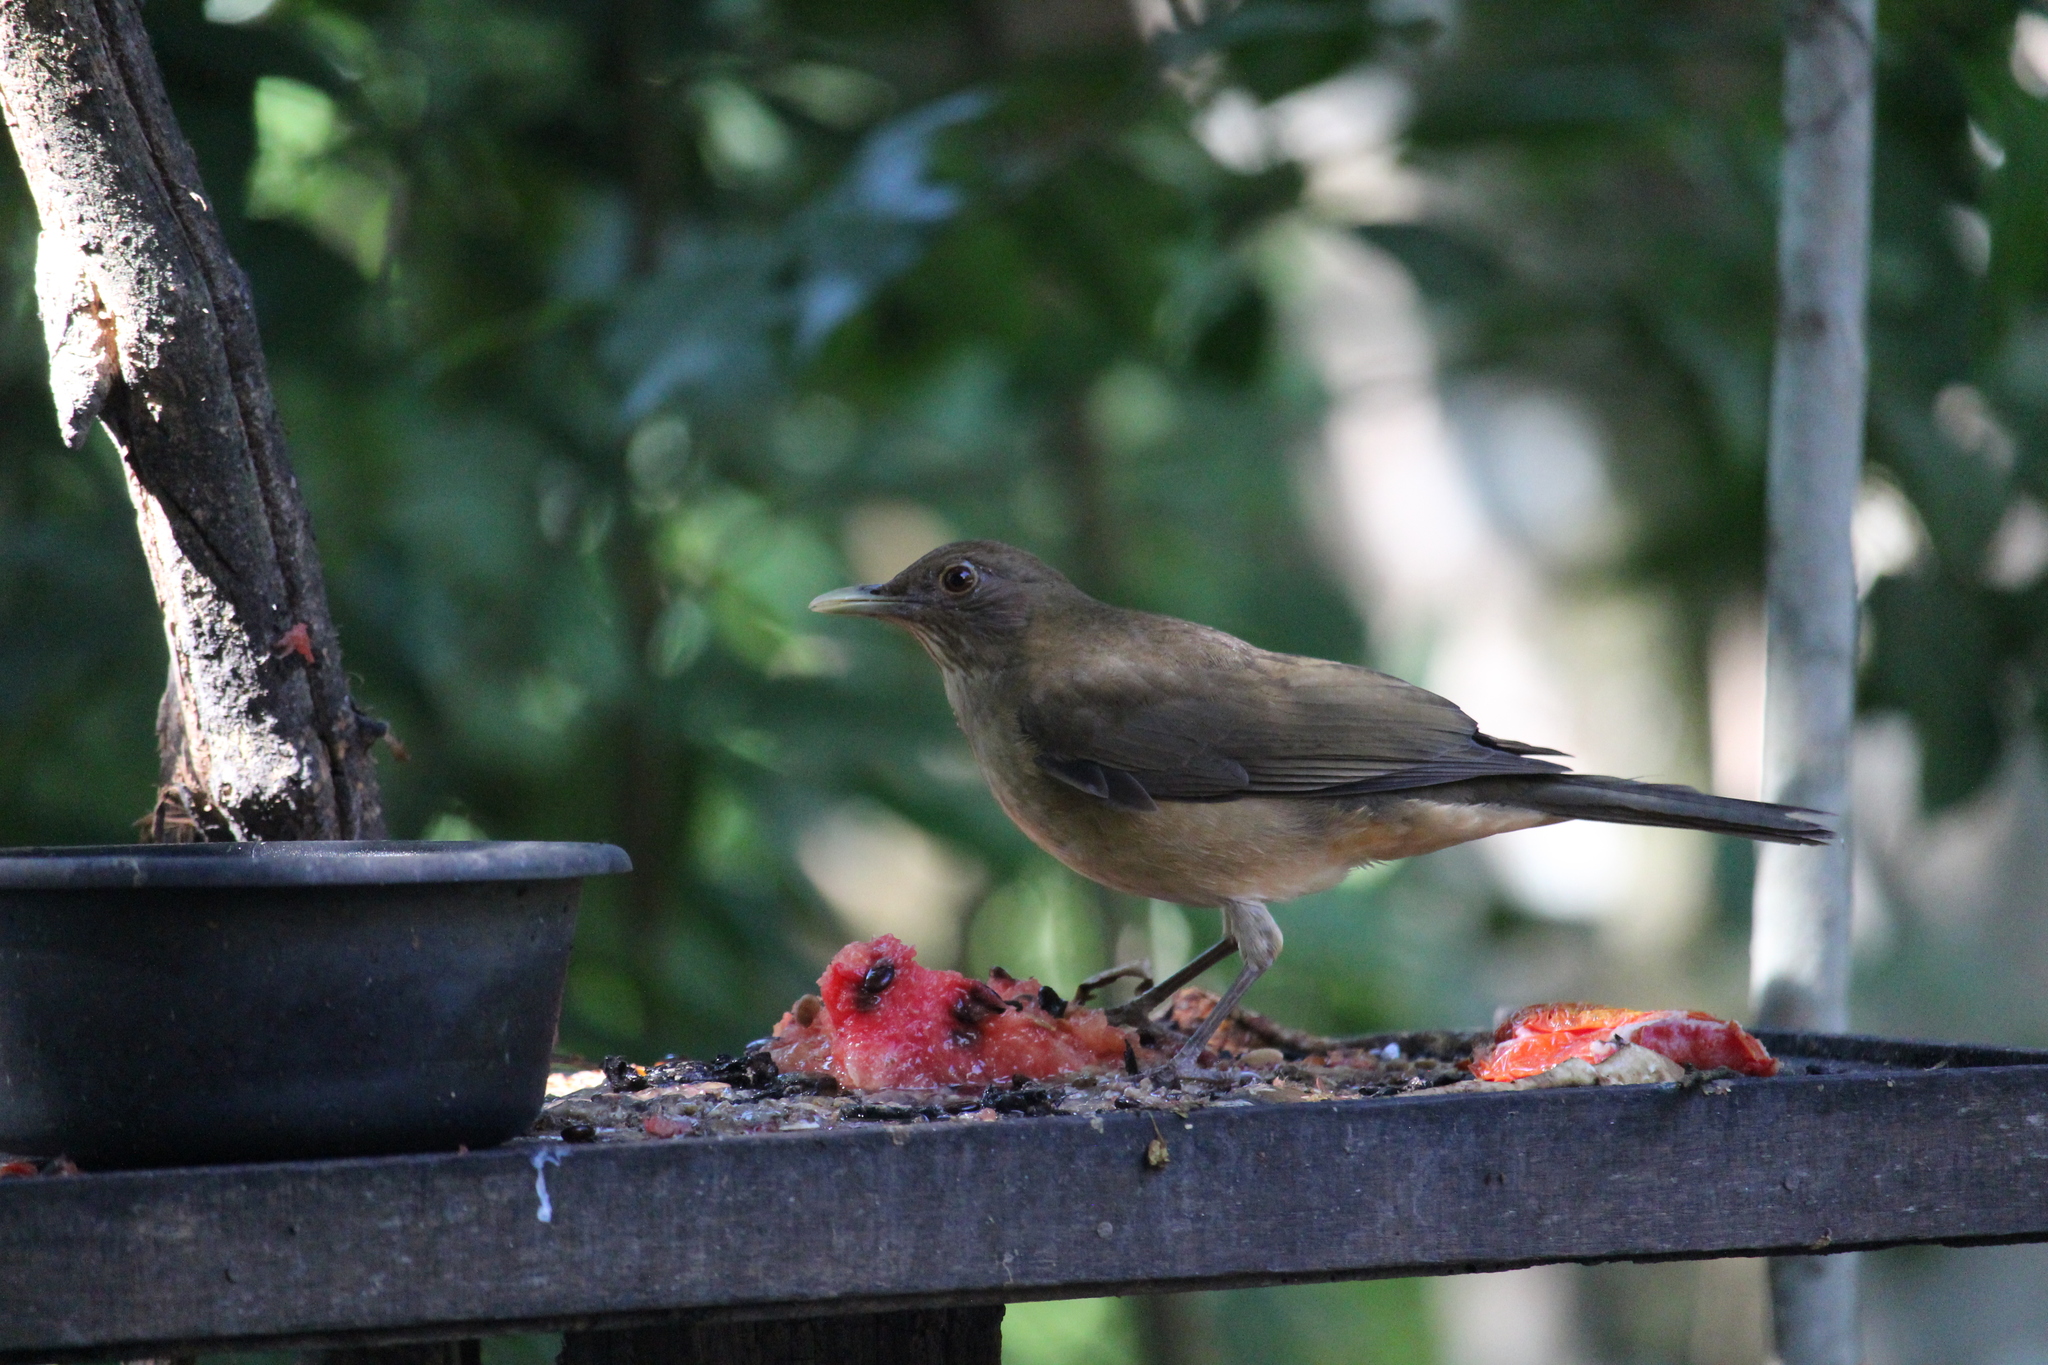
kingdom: Animalia
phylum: Chordata
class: Aves
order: Passeriformes
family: Turdidae
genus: Turdus
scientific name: Turdus grayi
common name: Clay-colored thrush
